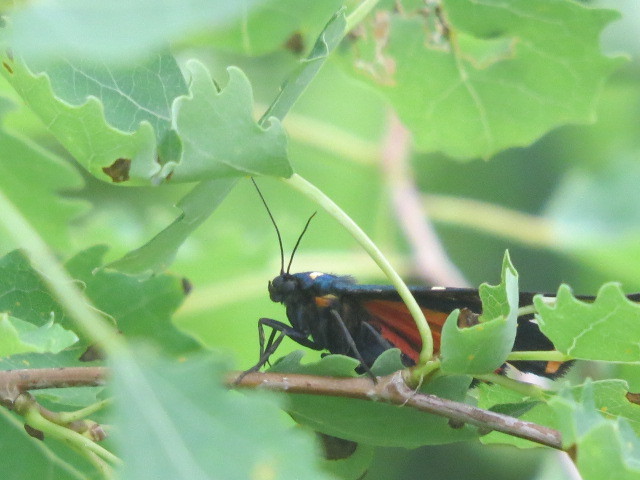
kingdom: Animalia
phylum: Arthropoda
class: Insecta
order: Lepidoptera
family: Erebidae
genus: Callimorpha
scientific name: Callimorpha dominula
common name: Scarlet tiger
